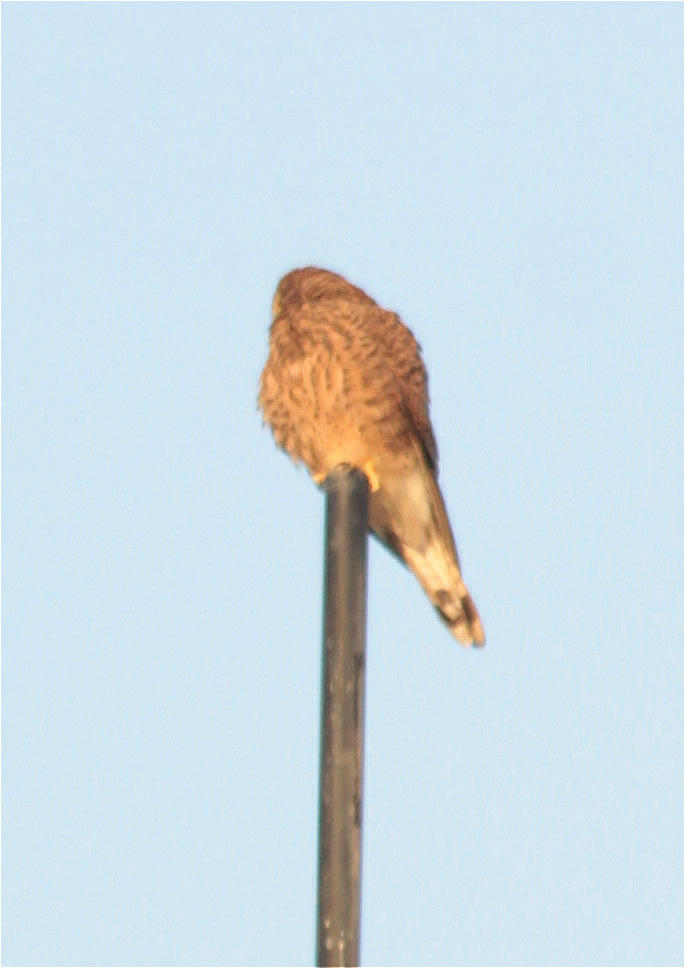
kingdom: Animalia
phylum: Chordata
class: Aves
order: Falconiformes
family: Falconidae
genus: Falco
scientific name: Falco tinnunculus
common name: Common kestrel
